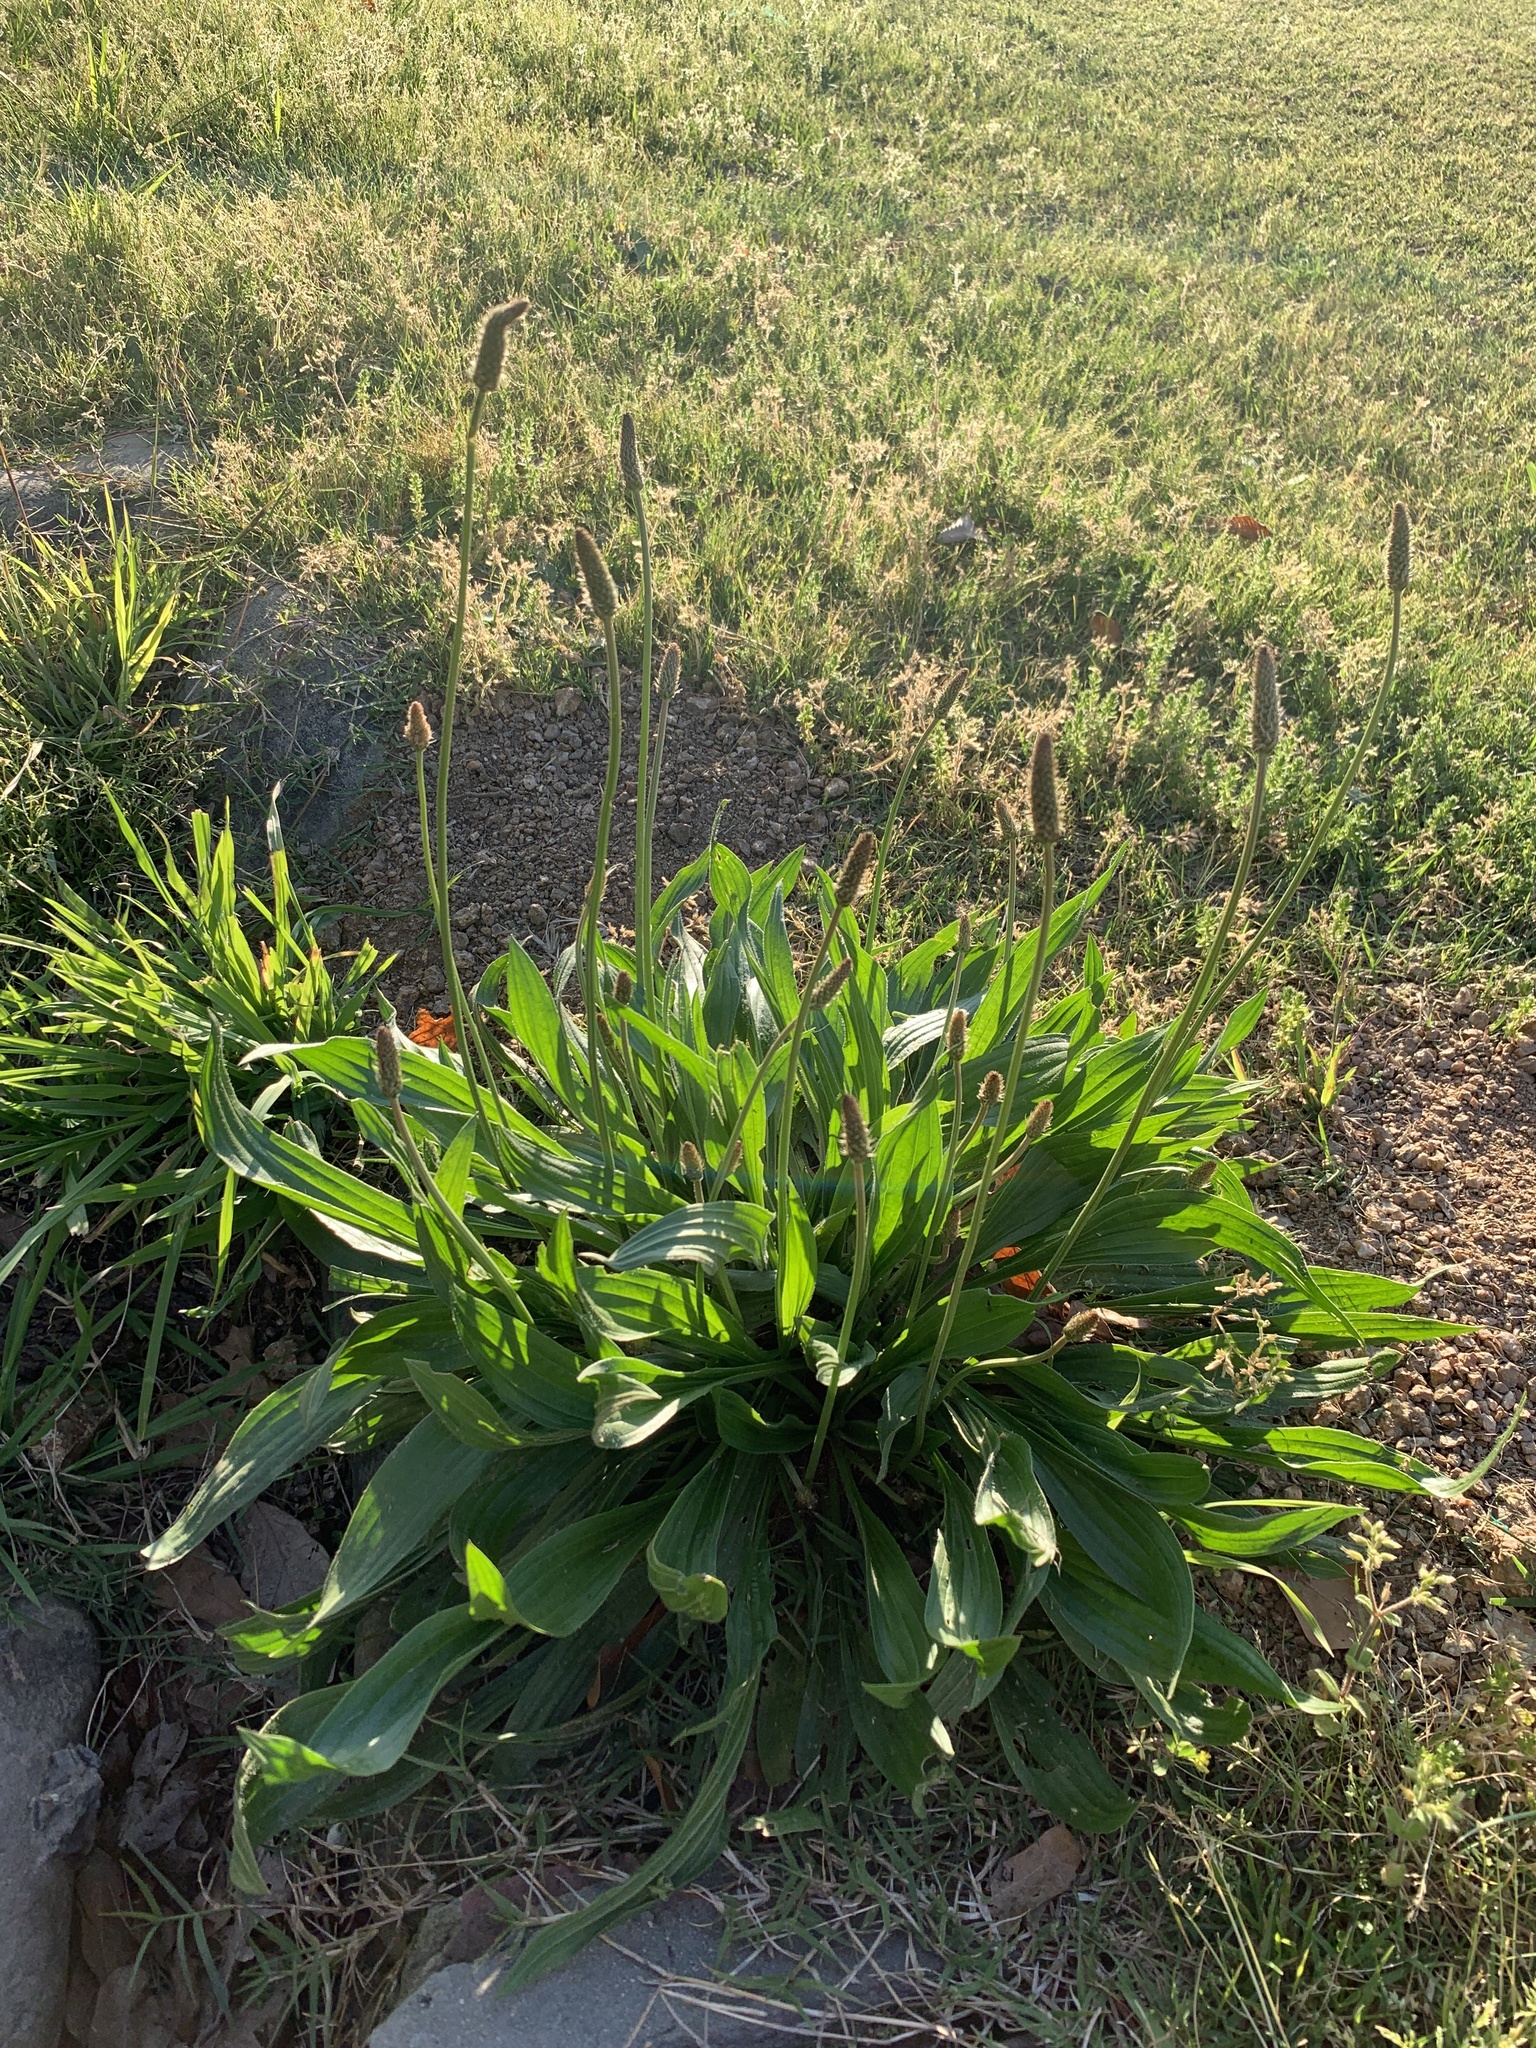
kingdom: Plantae
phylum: Tracheophyta
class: Magnoliopsida
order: Lamiales
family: Plantaginaceae
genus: Plantago
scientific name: Plantago lanceolata
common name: Ribwort plantain
